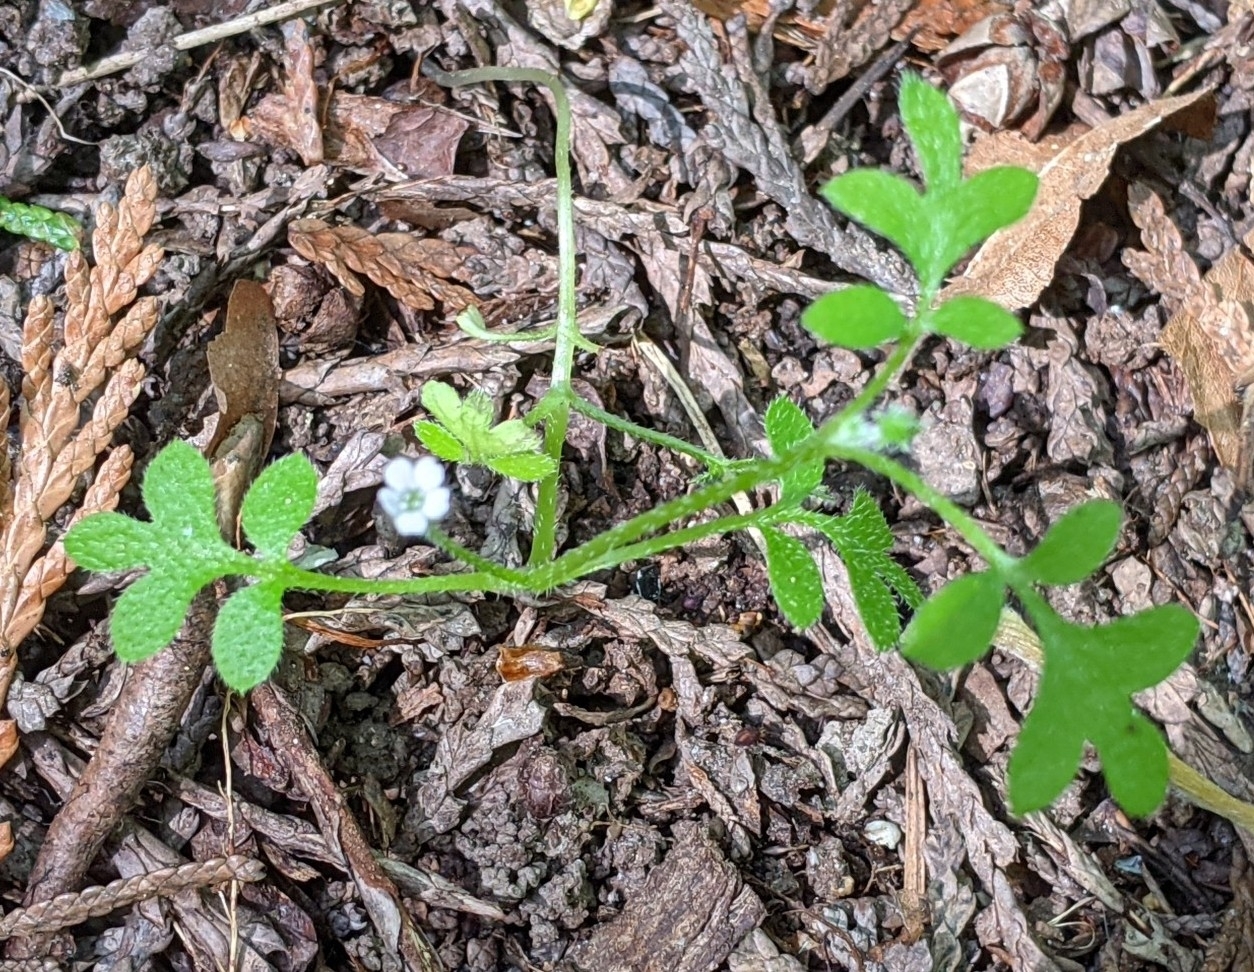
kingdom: Plantae
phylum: Tracheophyta
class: Magnoliopsida
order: Boraginales
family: Hydrophyllaceae
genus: Nemophila
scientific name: Nemophila parviflora
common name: Small-flowered baby-blue-eyes
